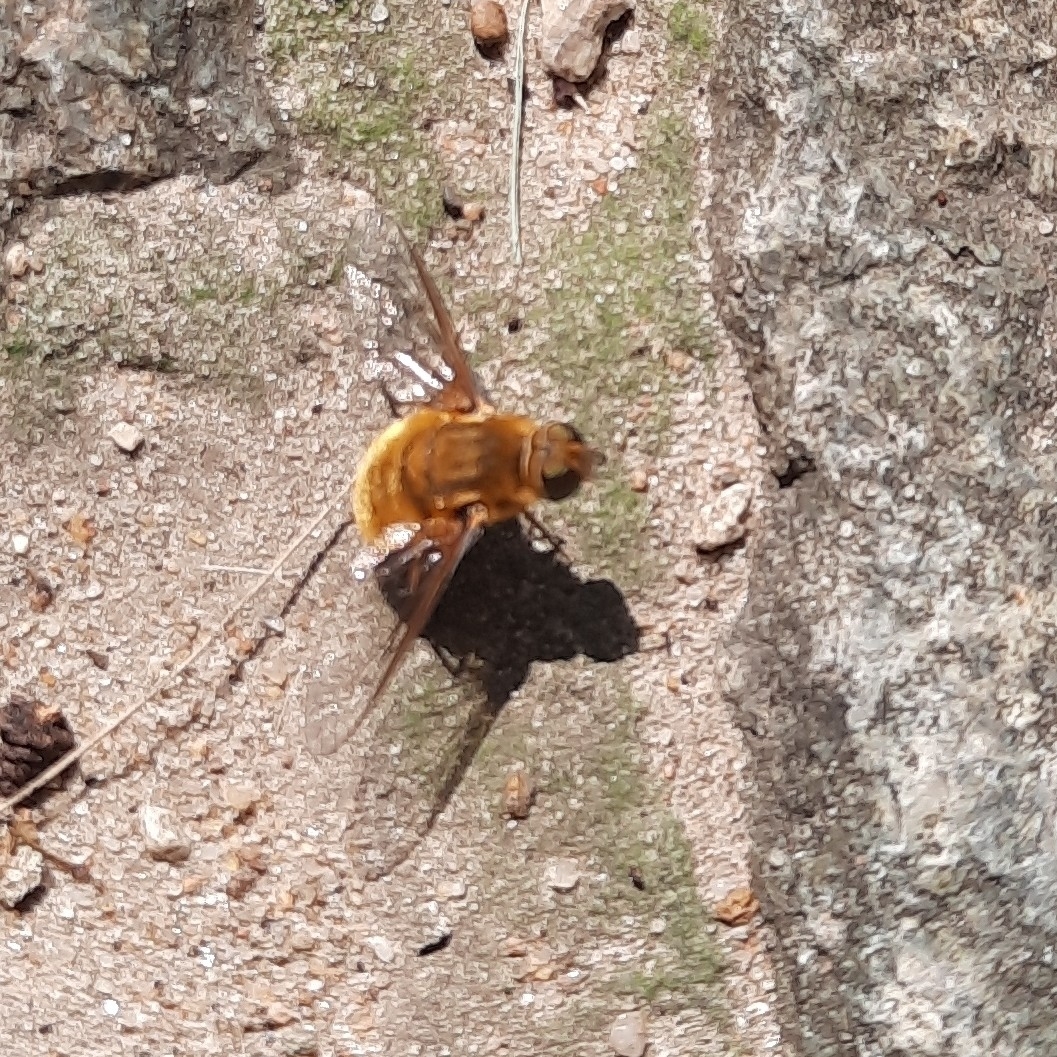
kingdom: Animalia
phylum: Arthropoda
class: Insecta
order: Diptera
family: Bombyliidae
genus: Villa
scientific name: Villa hottentotta
